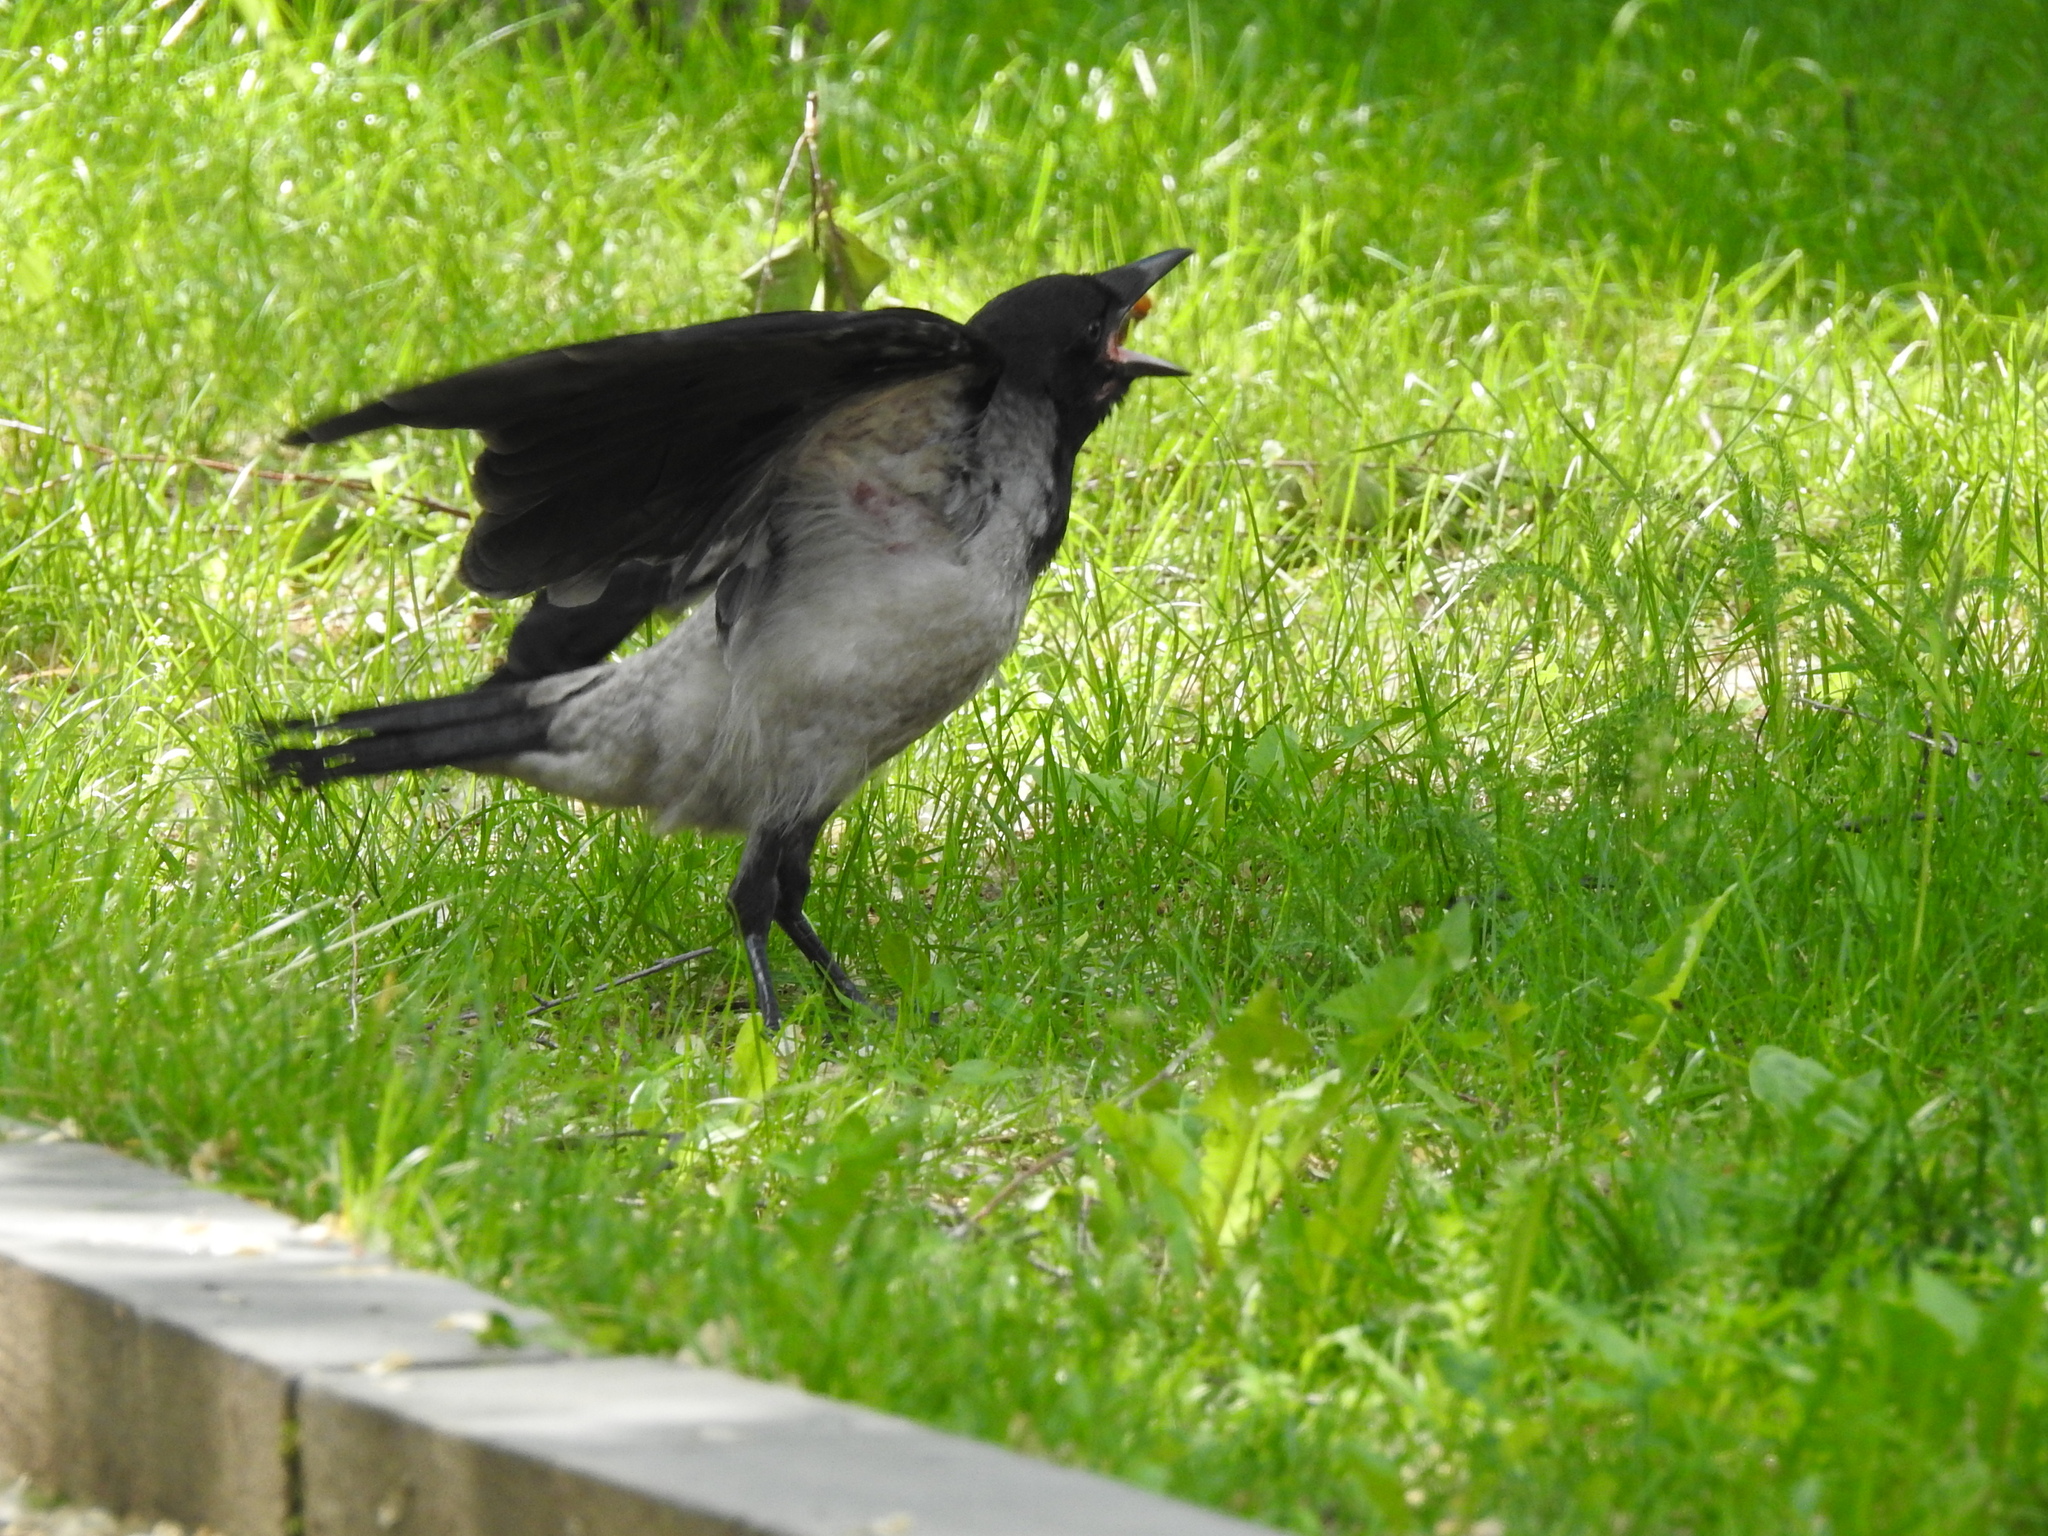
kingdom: Animalia
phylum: Chordata
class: Aves
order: Passeriformes
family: Corvidae
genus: Corvus
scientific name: Corvus cornix
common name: Hooded crow
